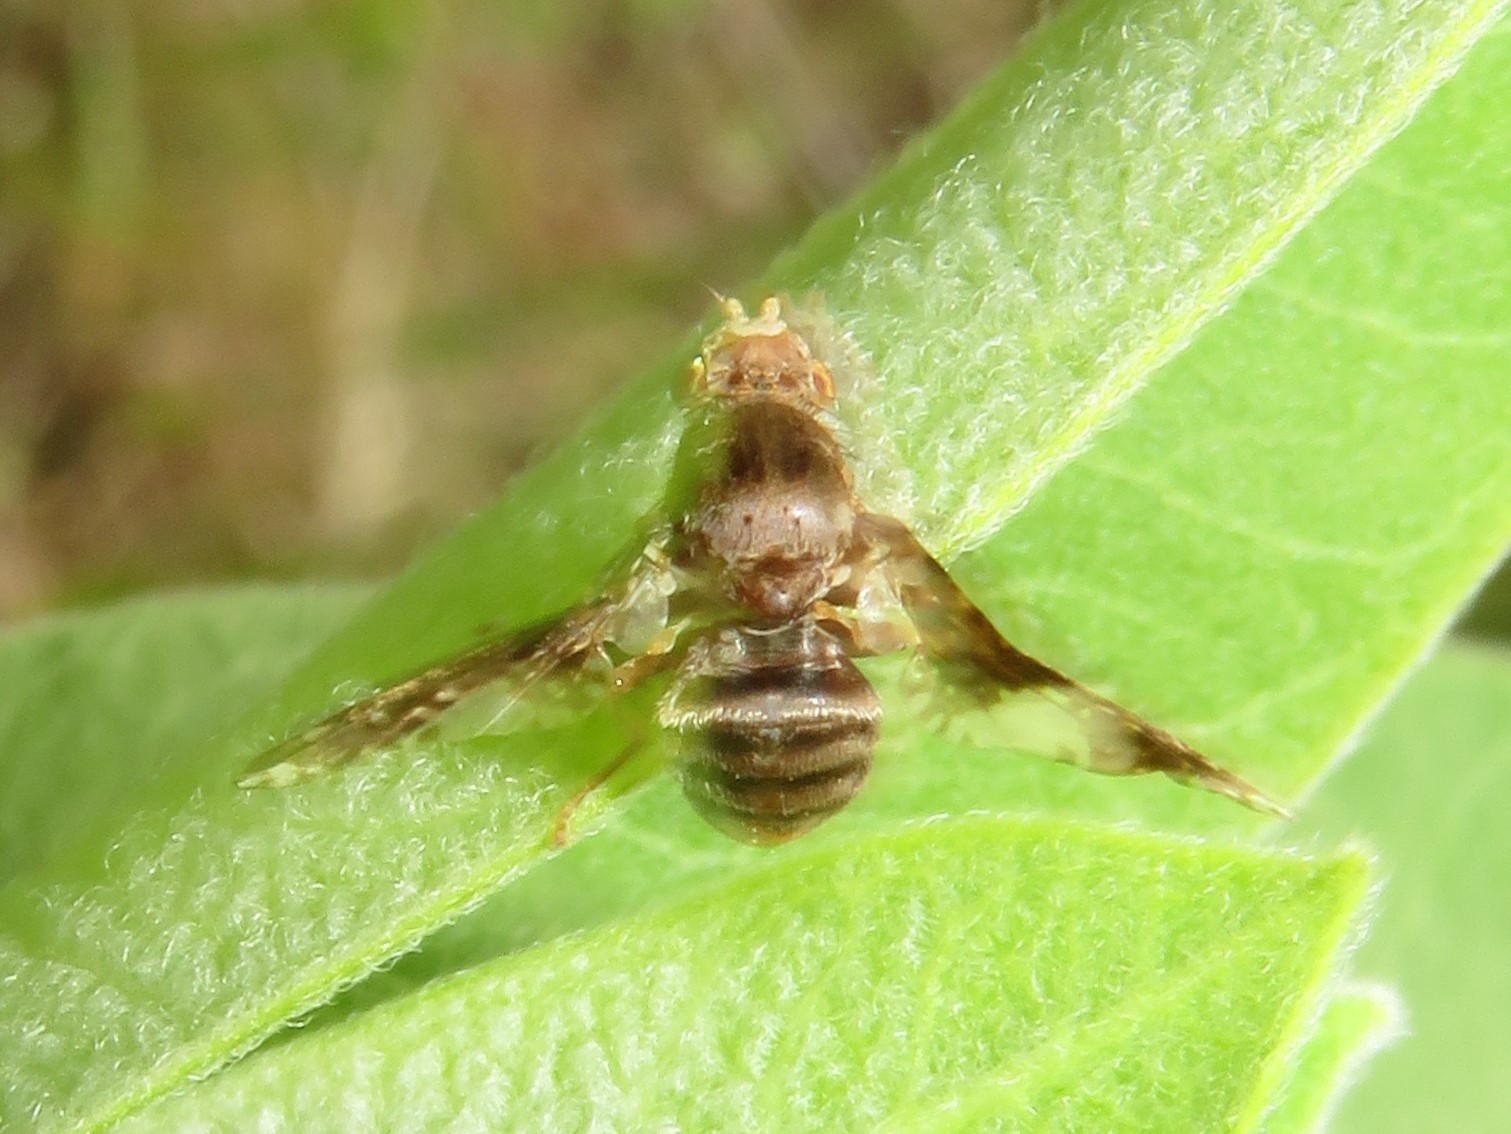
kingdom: Animalia
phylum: Arthropoda
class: Insecta
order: Diptera
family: Tephritidae
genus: Eurosta
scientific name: Eurosta solidaginis
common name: Goldenrod gall fly
